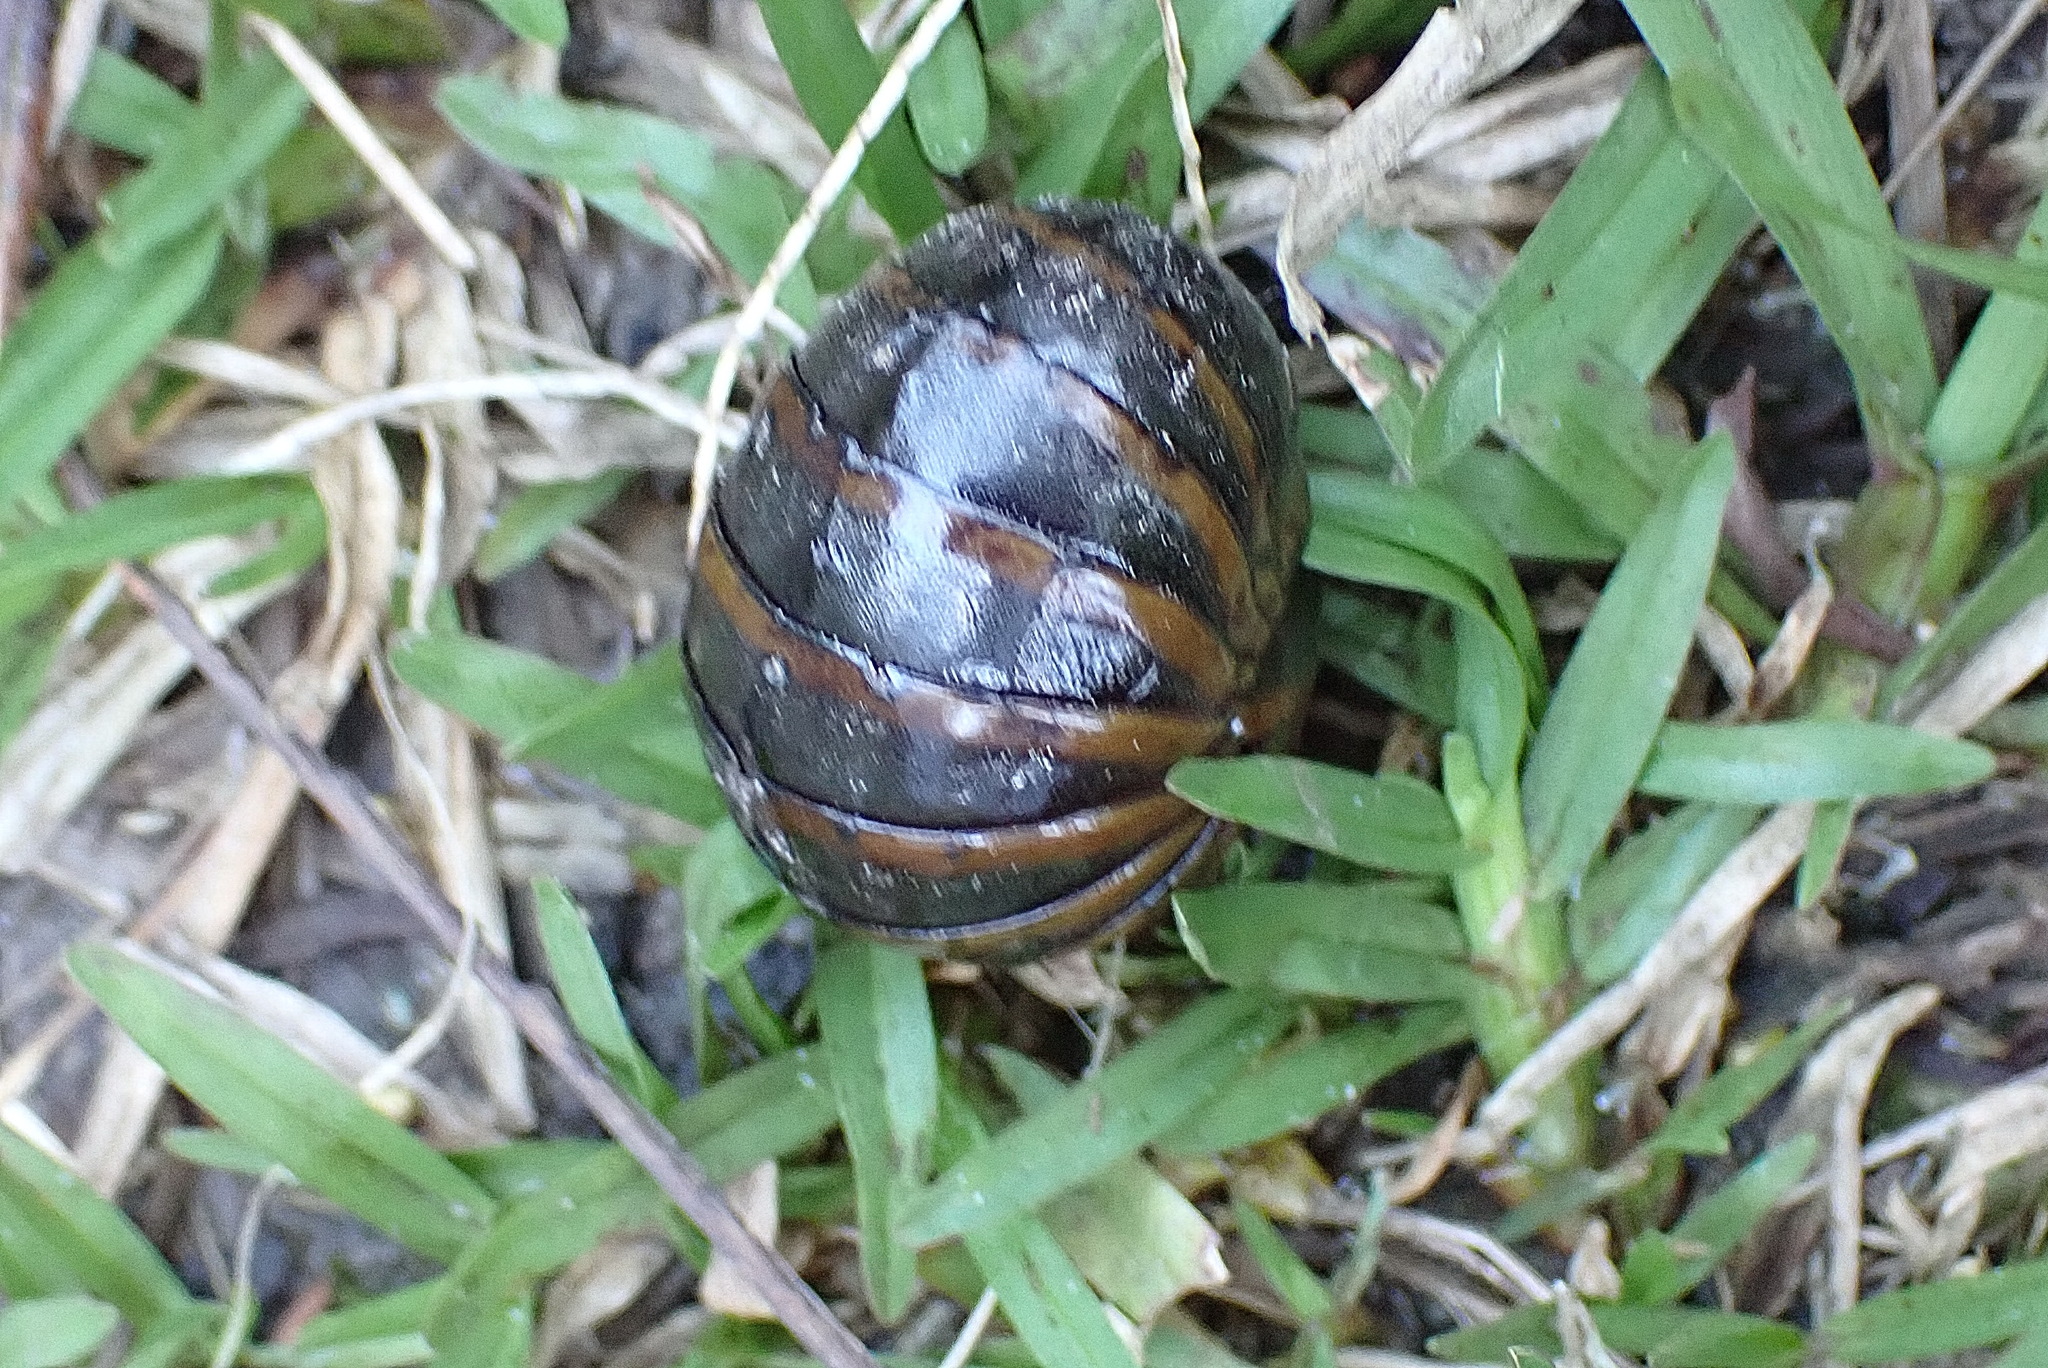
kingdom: Animalia
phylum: Arthropoda
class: Insecta
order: Blattodea
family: Blaberidae
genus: Aptera
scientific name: Aptera fusca
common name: Cape mountain cockroach
